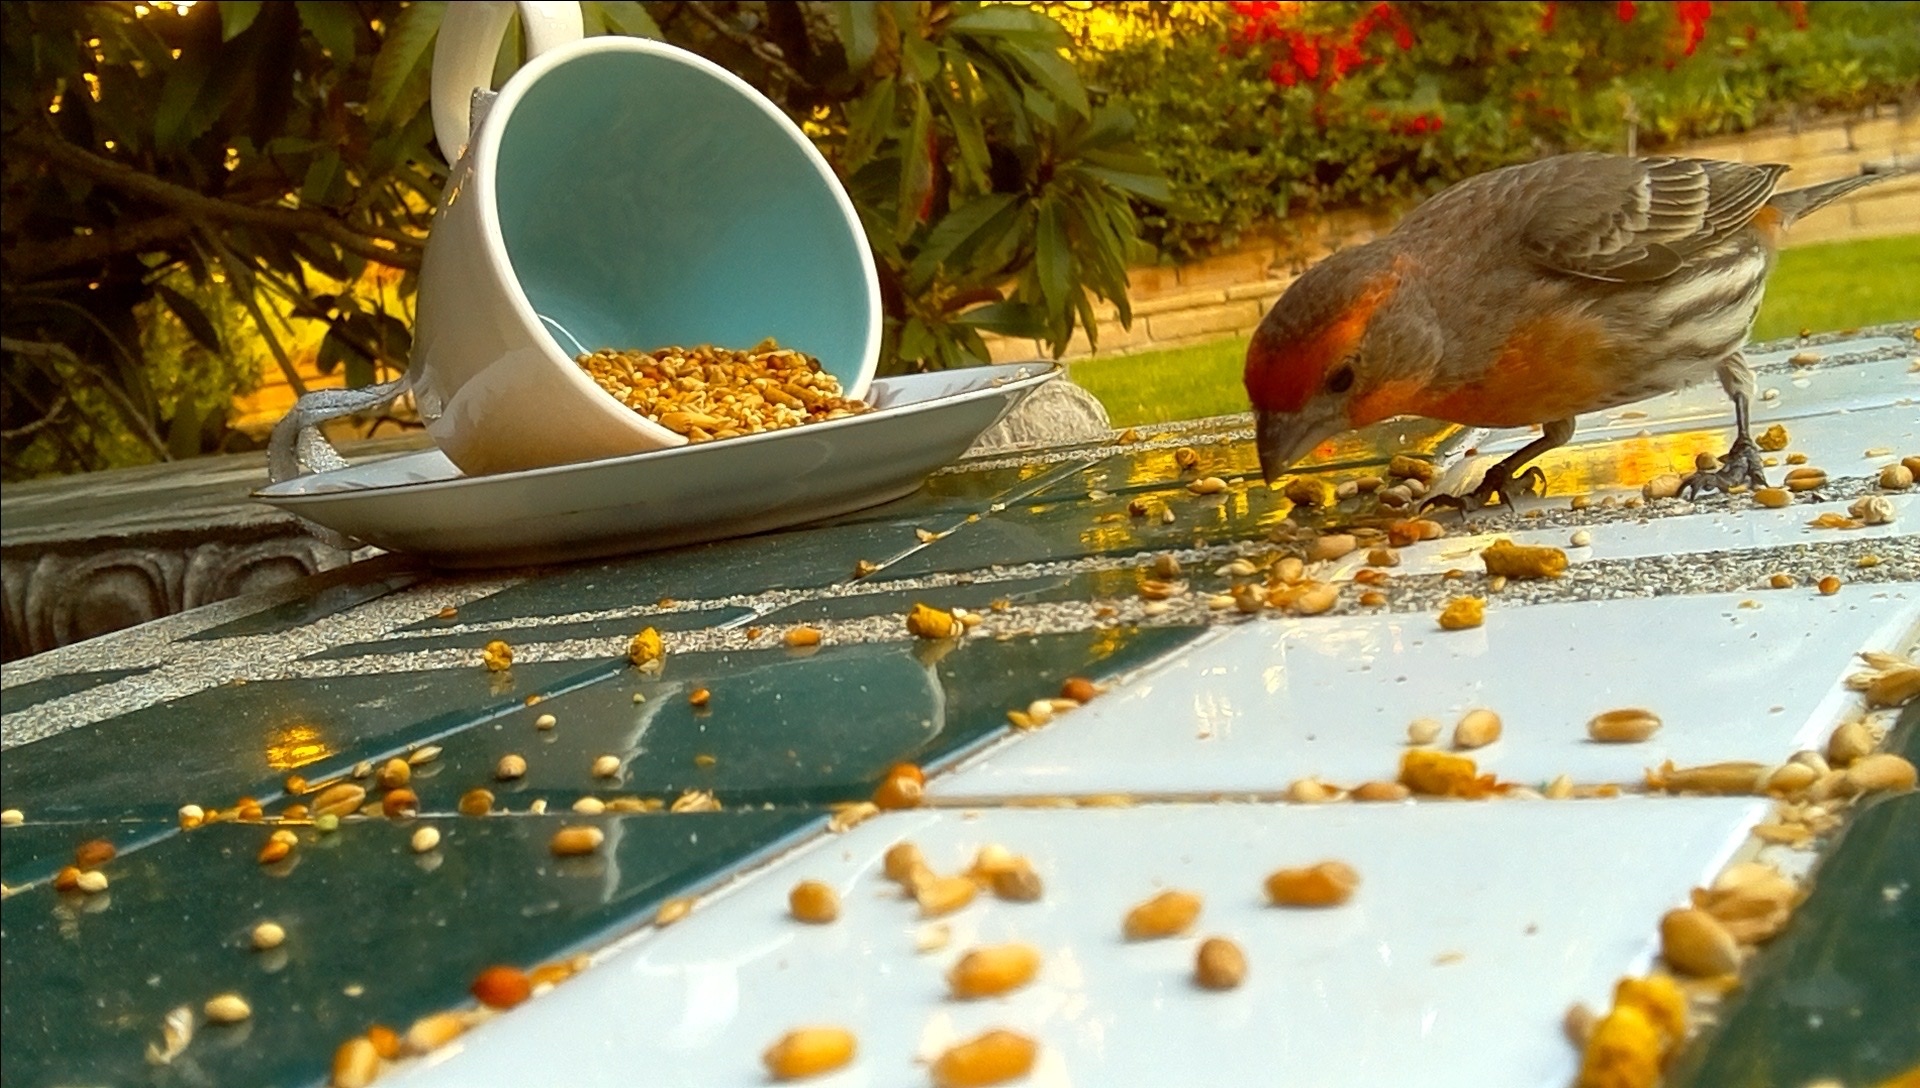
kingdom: Animalia
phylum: Chordata
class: Aves
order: Passeriformes
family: Fringillidae
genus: Haemorhous
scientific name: Haemorhous mexicanus
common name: House finch
